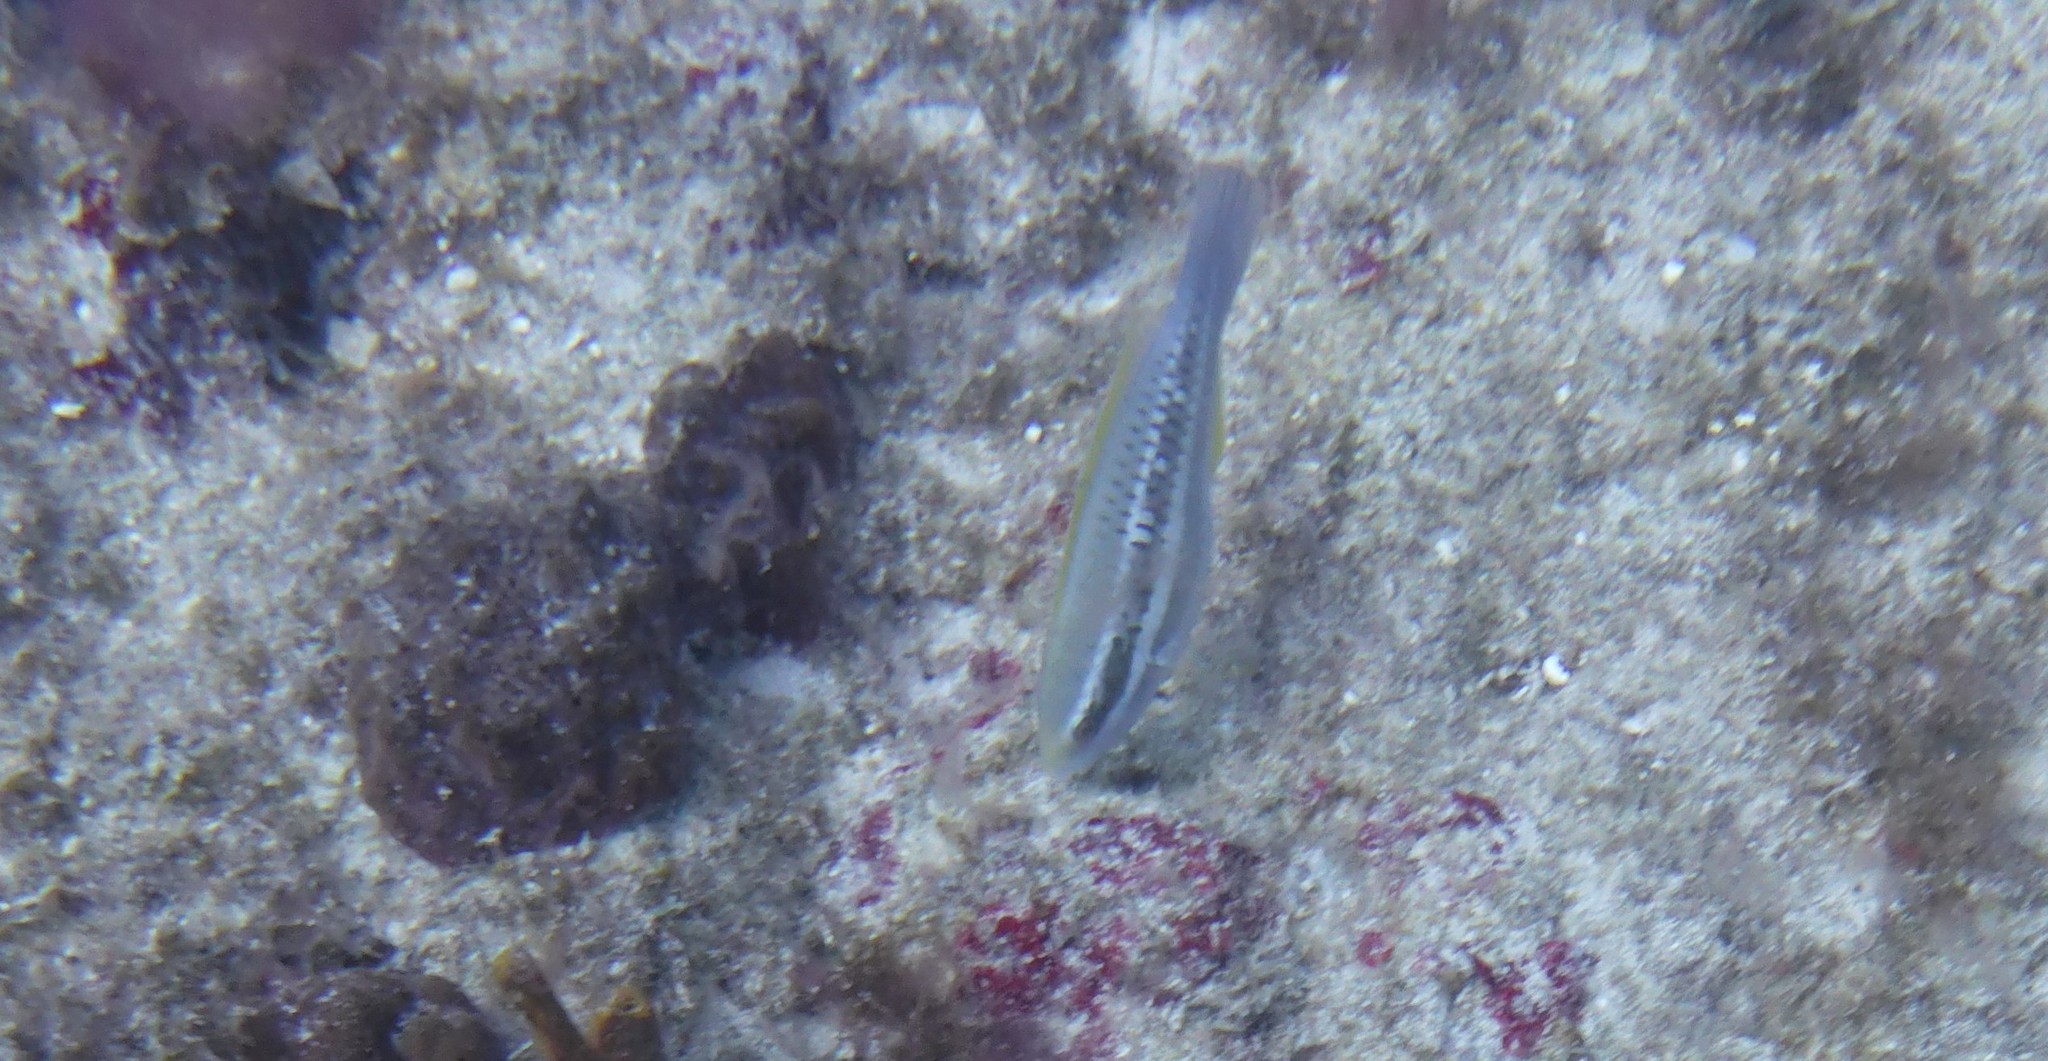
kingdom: Animalia
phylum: Chordata
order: Perciformes
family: Scaridae
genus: Scarus
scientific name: Scarus iseri
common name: Striped parrotfish
